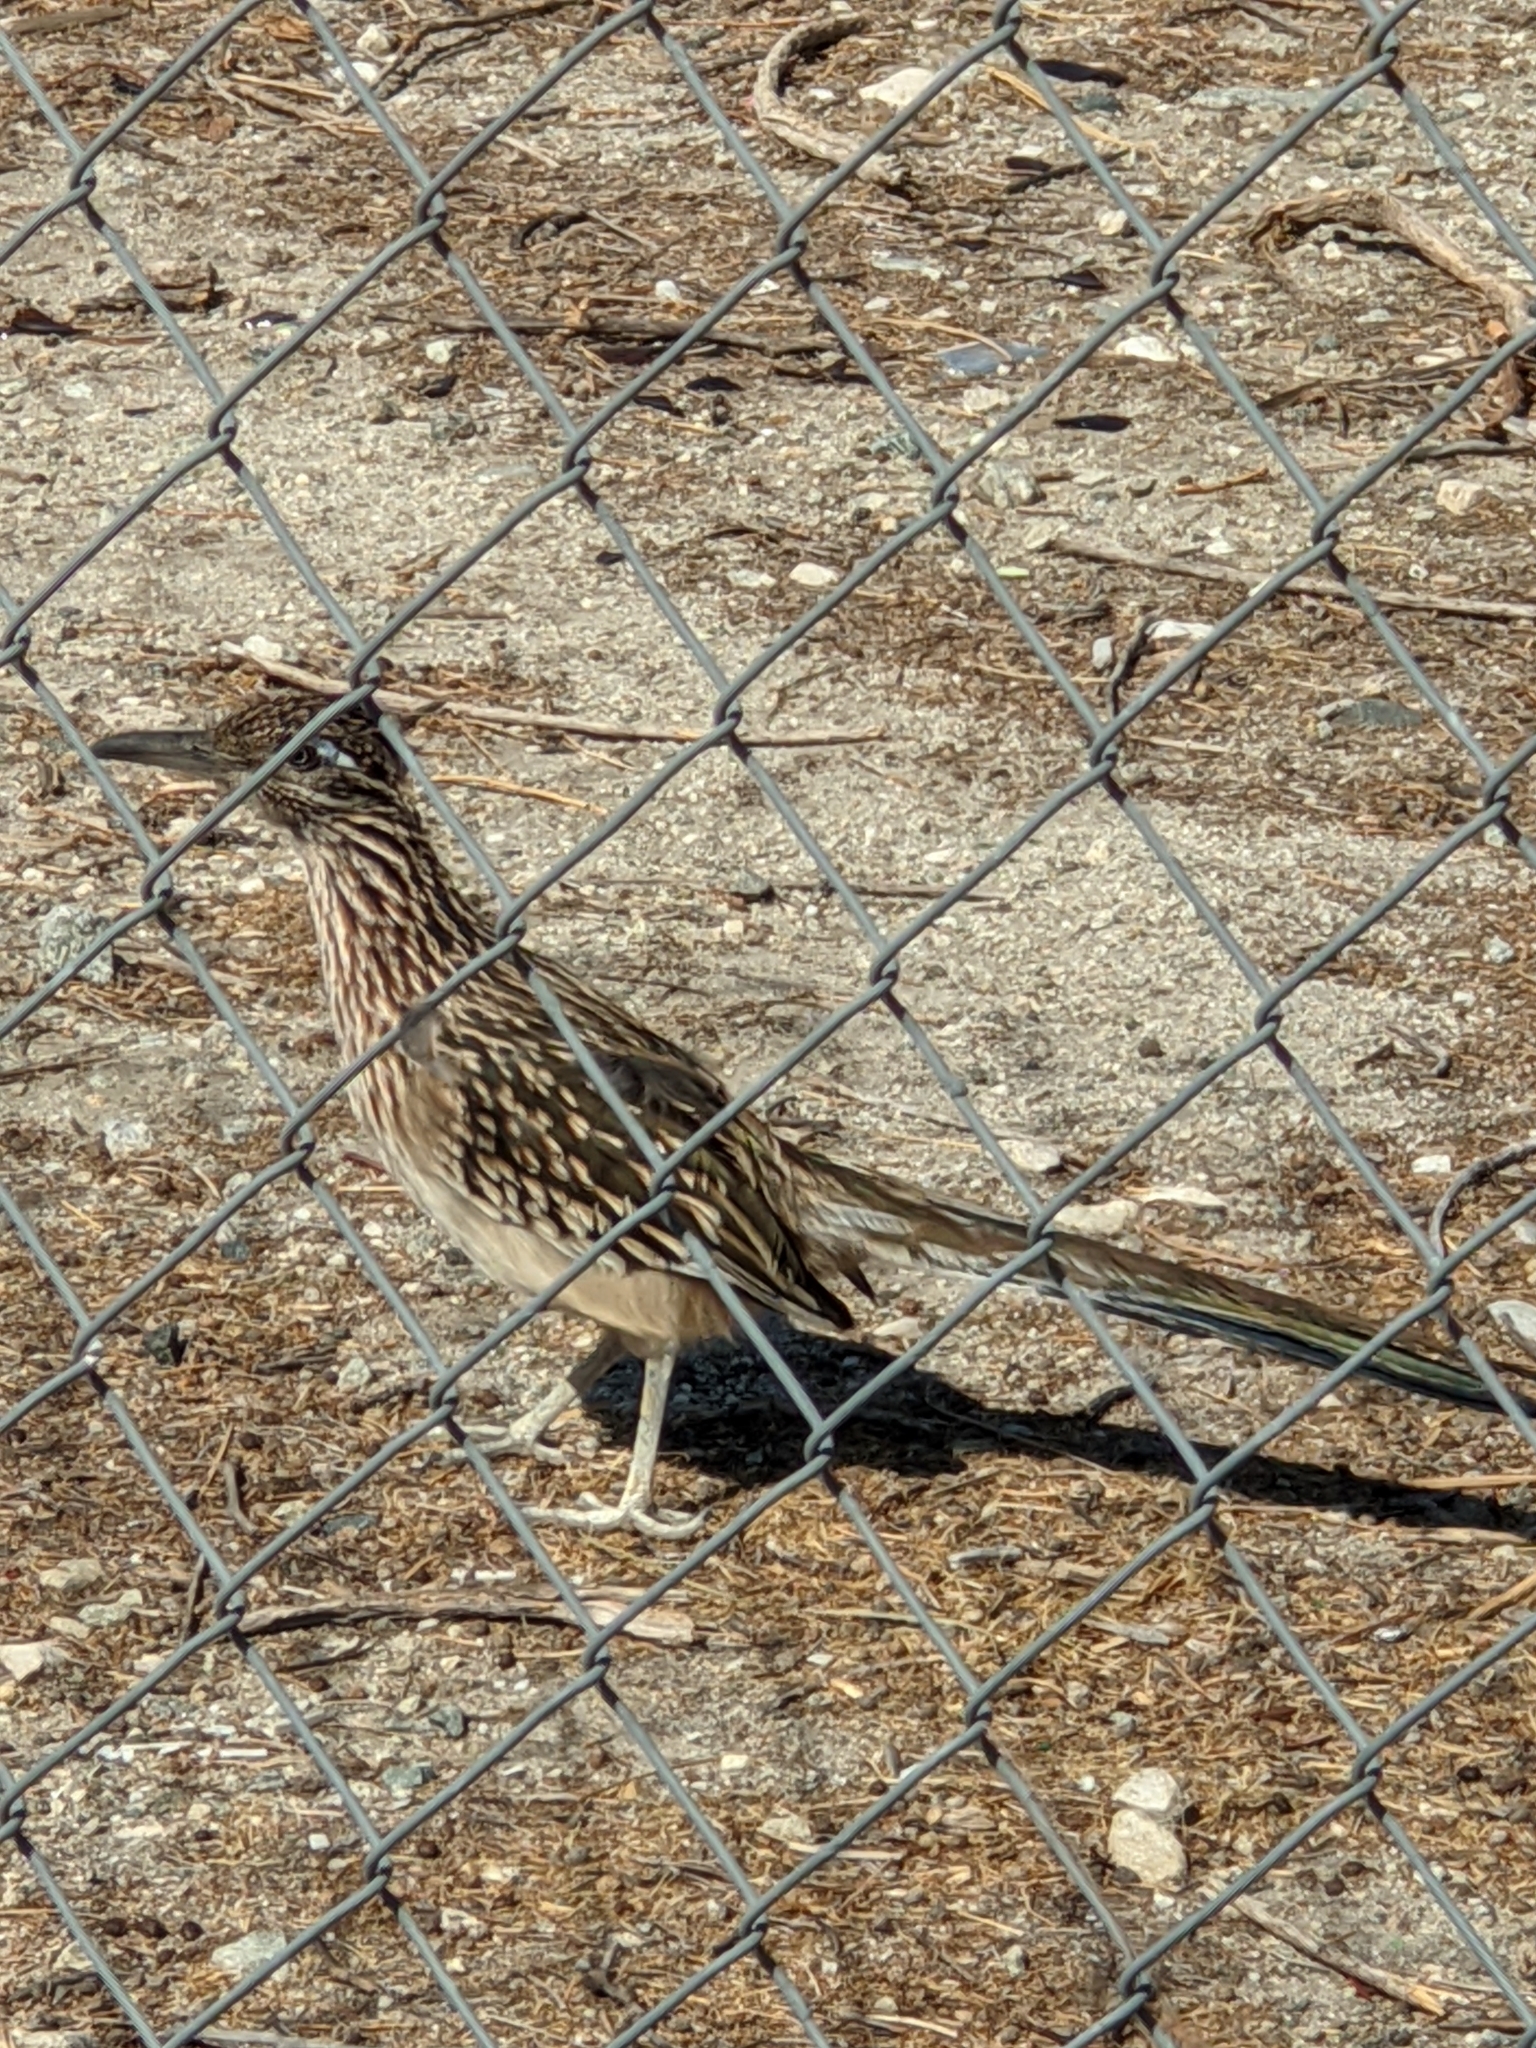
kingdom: Animalia
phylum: Chordata
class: Aves
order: Cuculiformes
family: Cuculidae
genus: Geococcyx
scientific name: Geococcyx californianus
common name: Greater roadrunner
